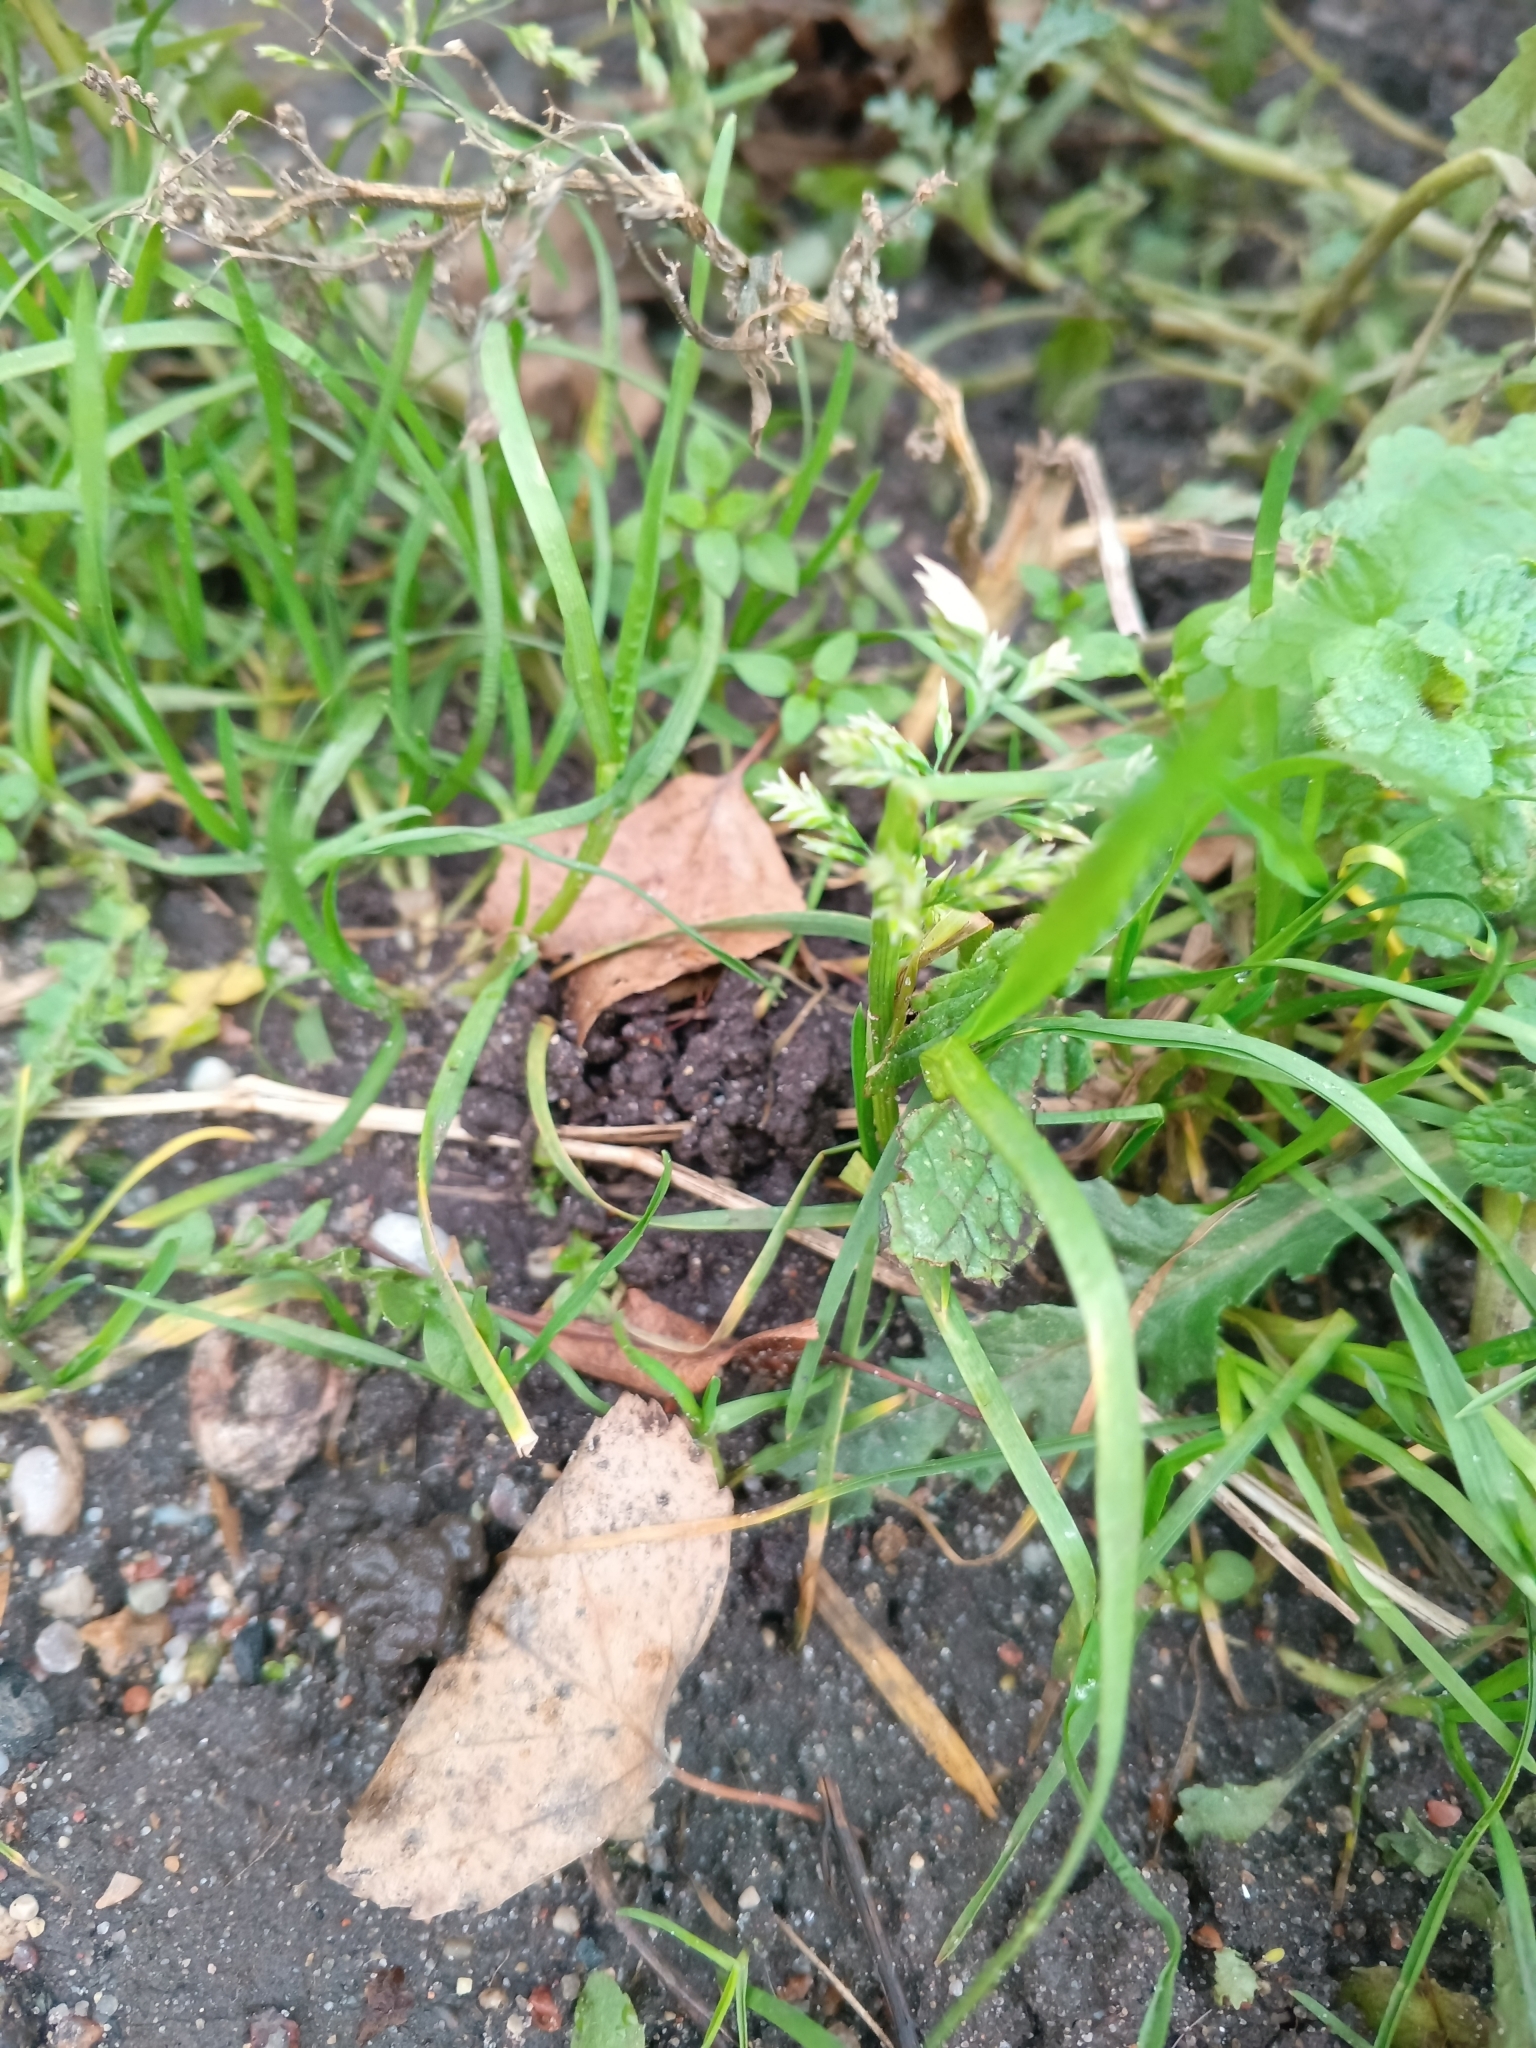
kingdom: Plantae
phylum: Tracheophyta
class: Liliopsida
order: Poales
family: Poaceae
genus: Poa
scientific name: Poa annua
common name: Annual bluegrass
